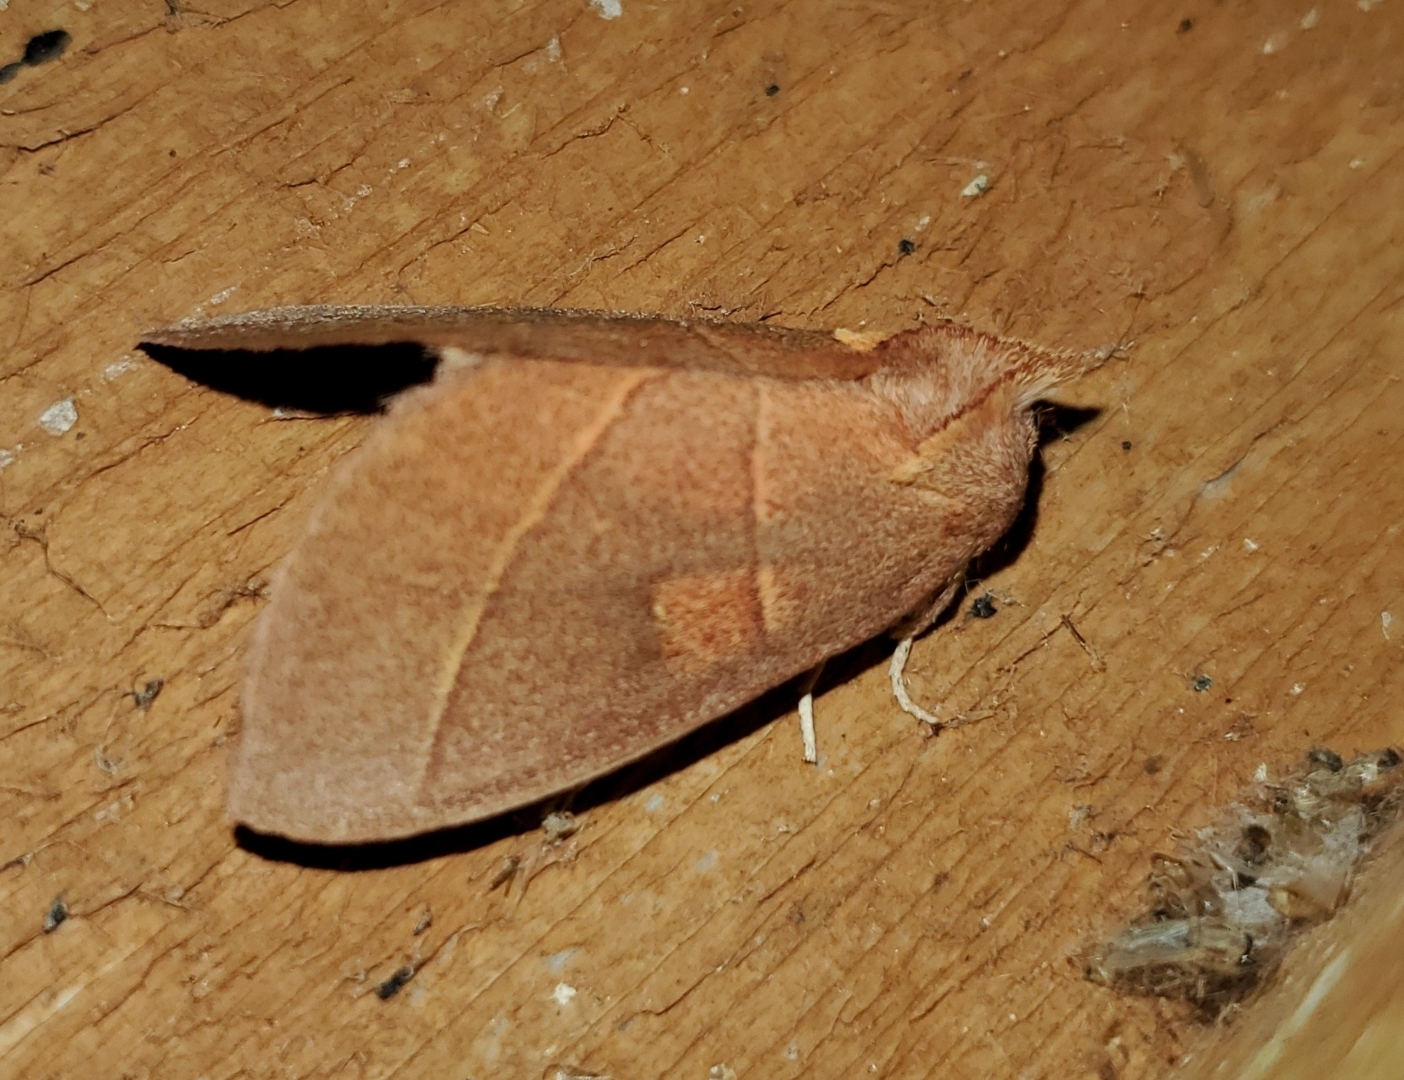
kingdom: Animalia
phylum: Arthropoda
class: Insecta
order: Lepidoptera
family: Notodontidae
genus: Nadata
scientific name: Nadata gibbosa
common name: White-dotted prominent
